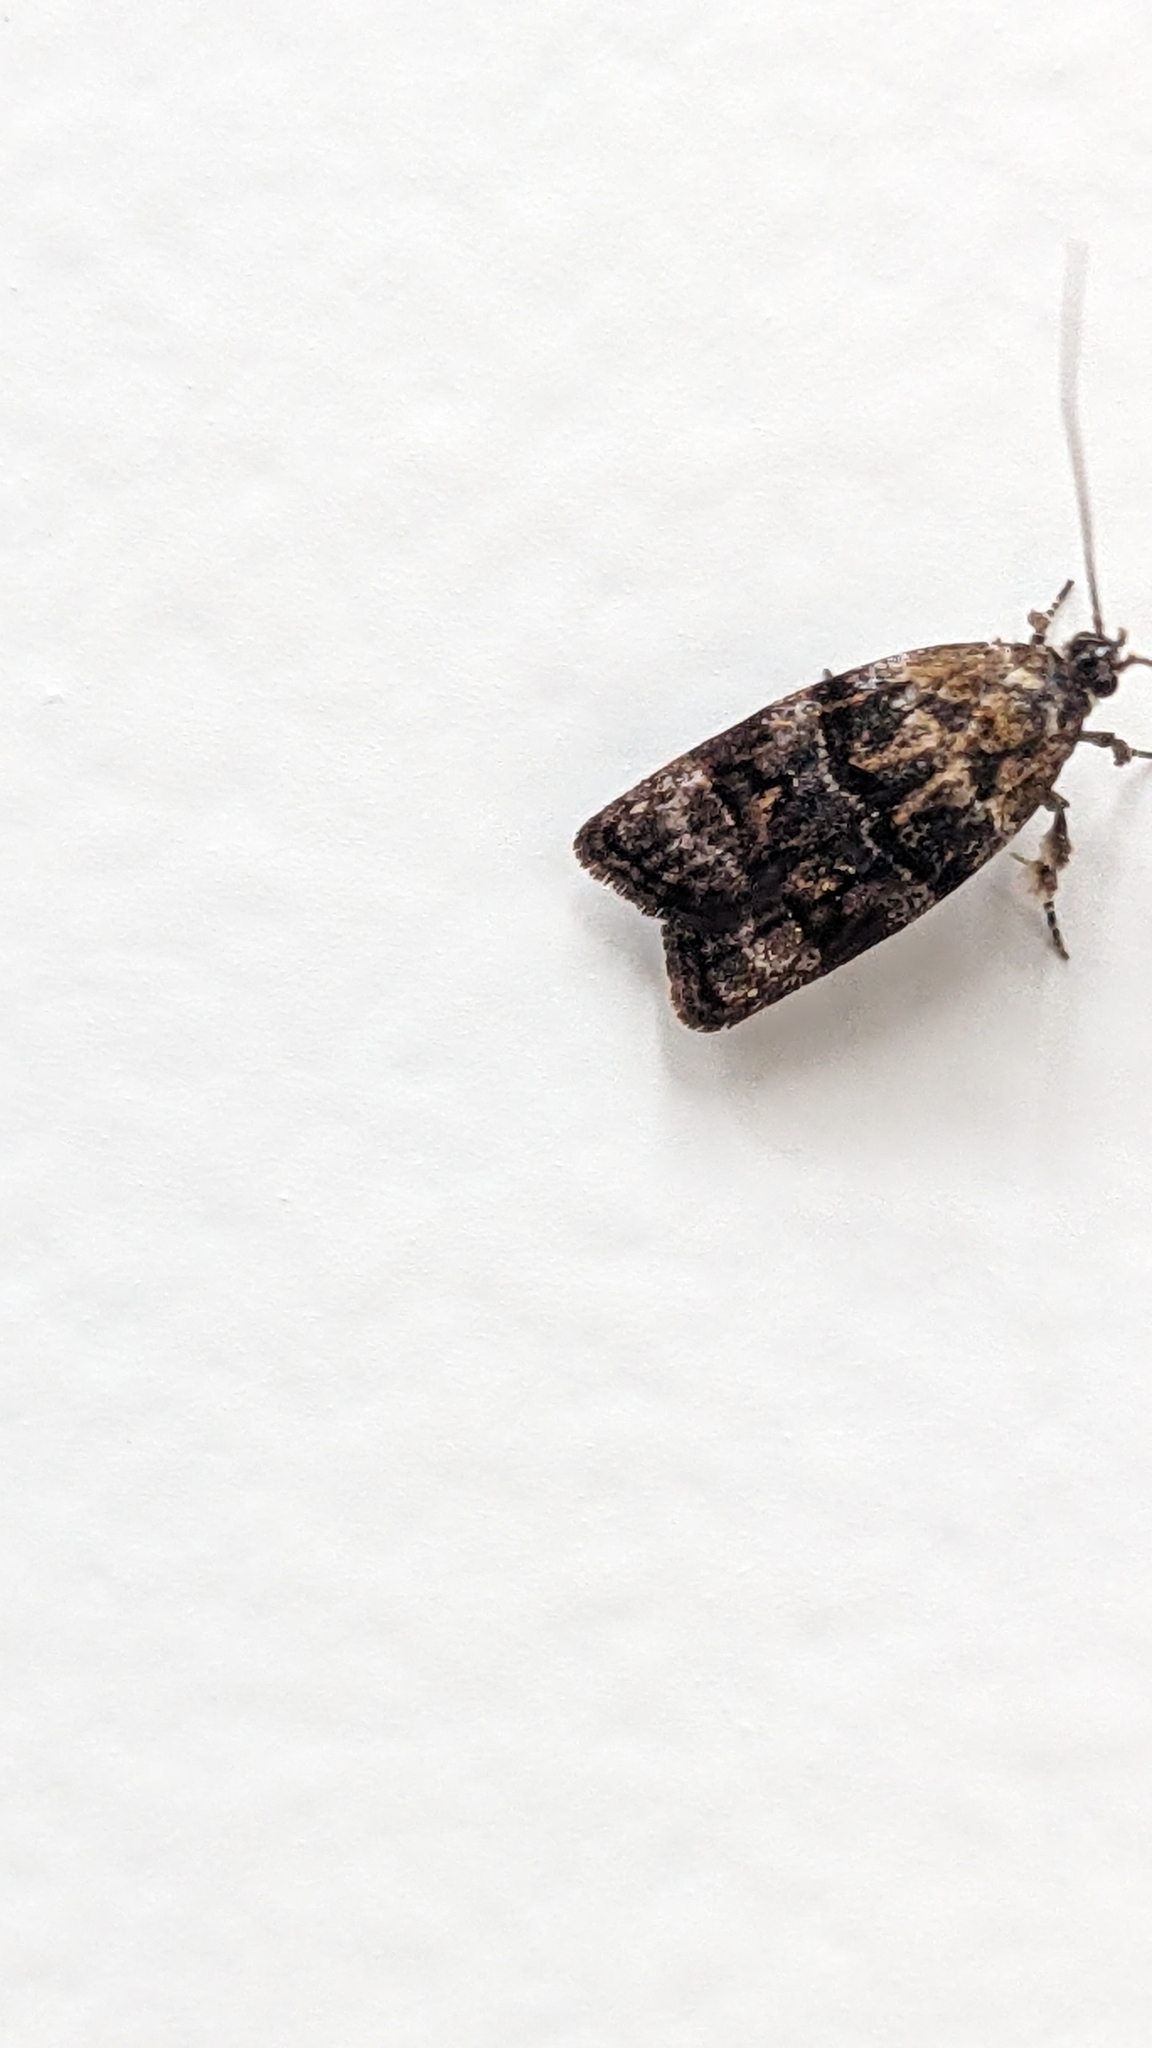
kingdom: Animalia
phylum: Arthropoda
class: Insecta
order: Lepidoptera
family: Oecophoridae
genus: Izatha
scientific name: Izatha metadelta
